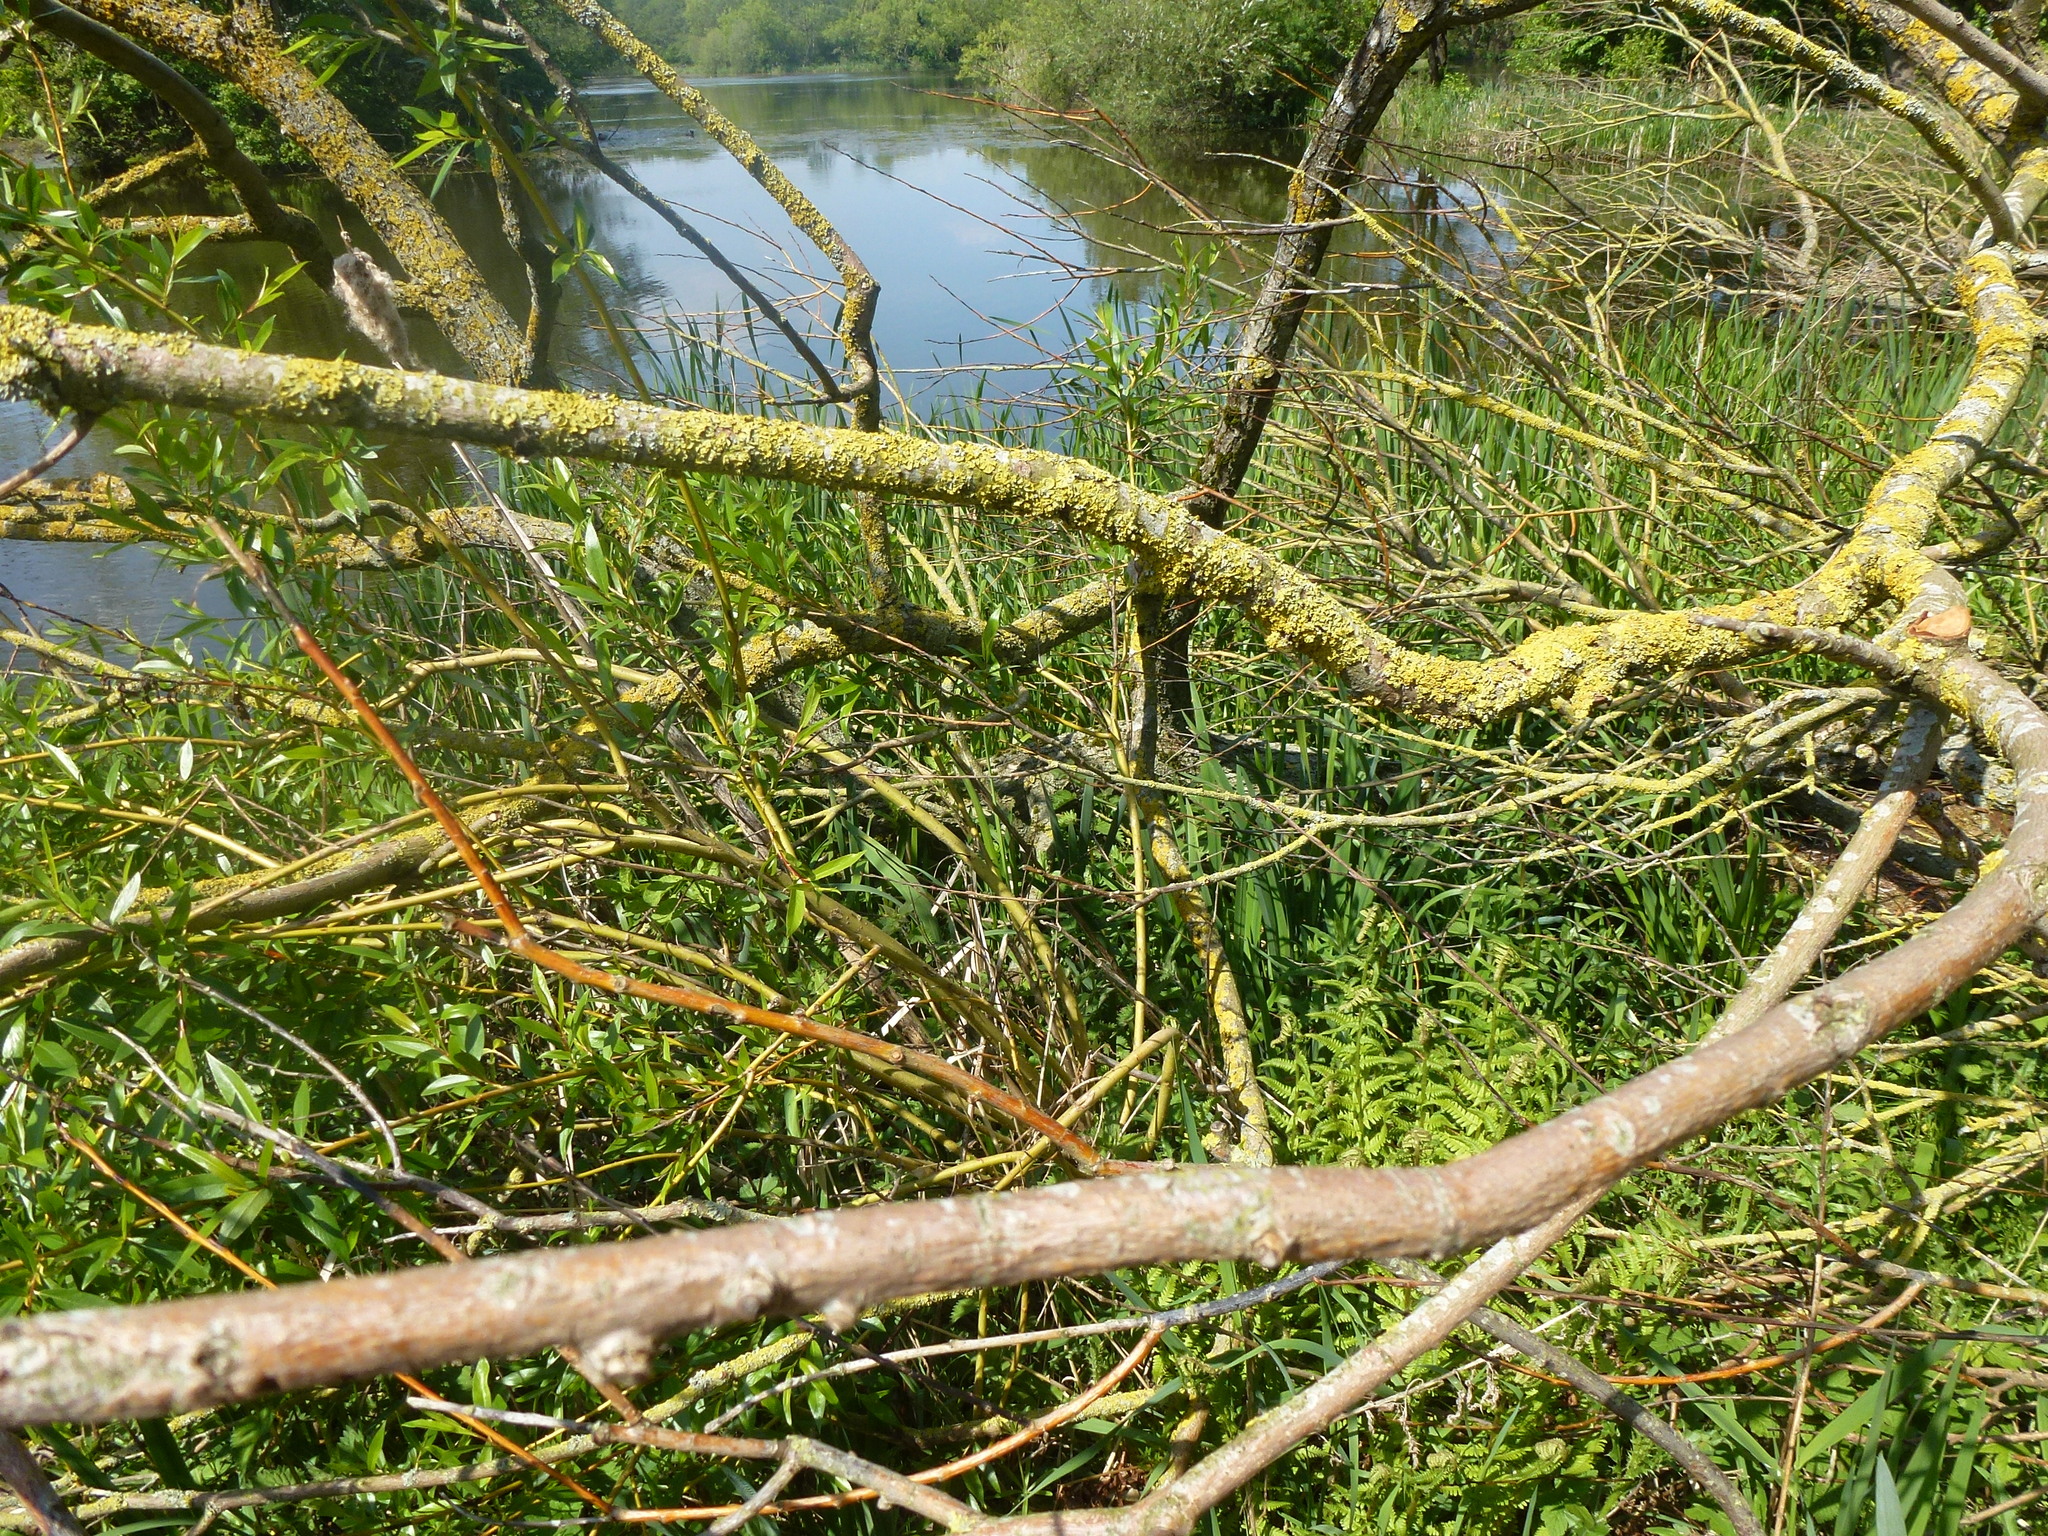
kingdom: Fungi
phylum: Ascomycota
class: Lecanoromycetes
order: Teloschistales
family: Teloschistaceae
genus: Xanthoria
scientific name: Xanthoria parietina
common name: Common orange lichen
